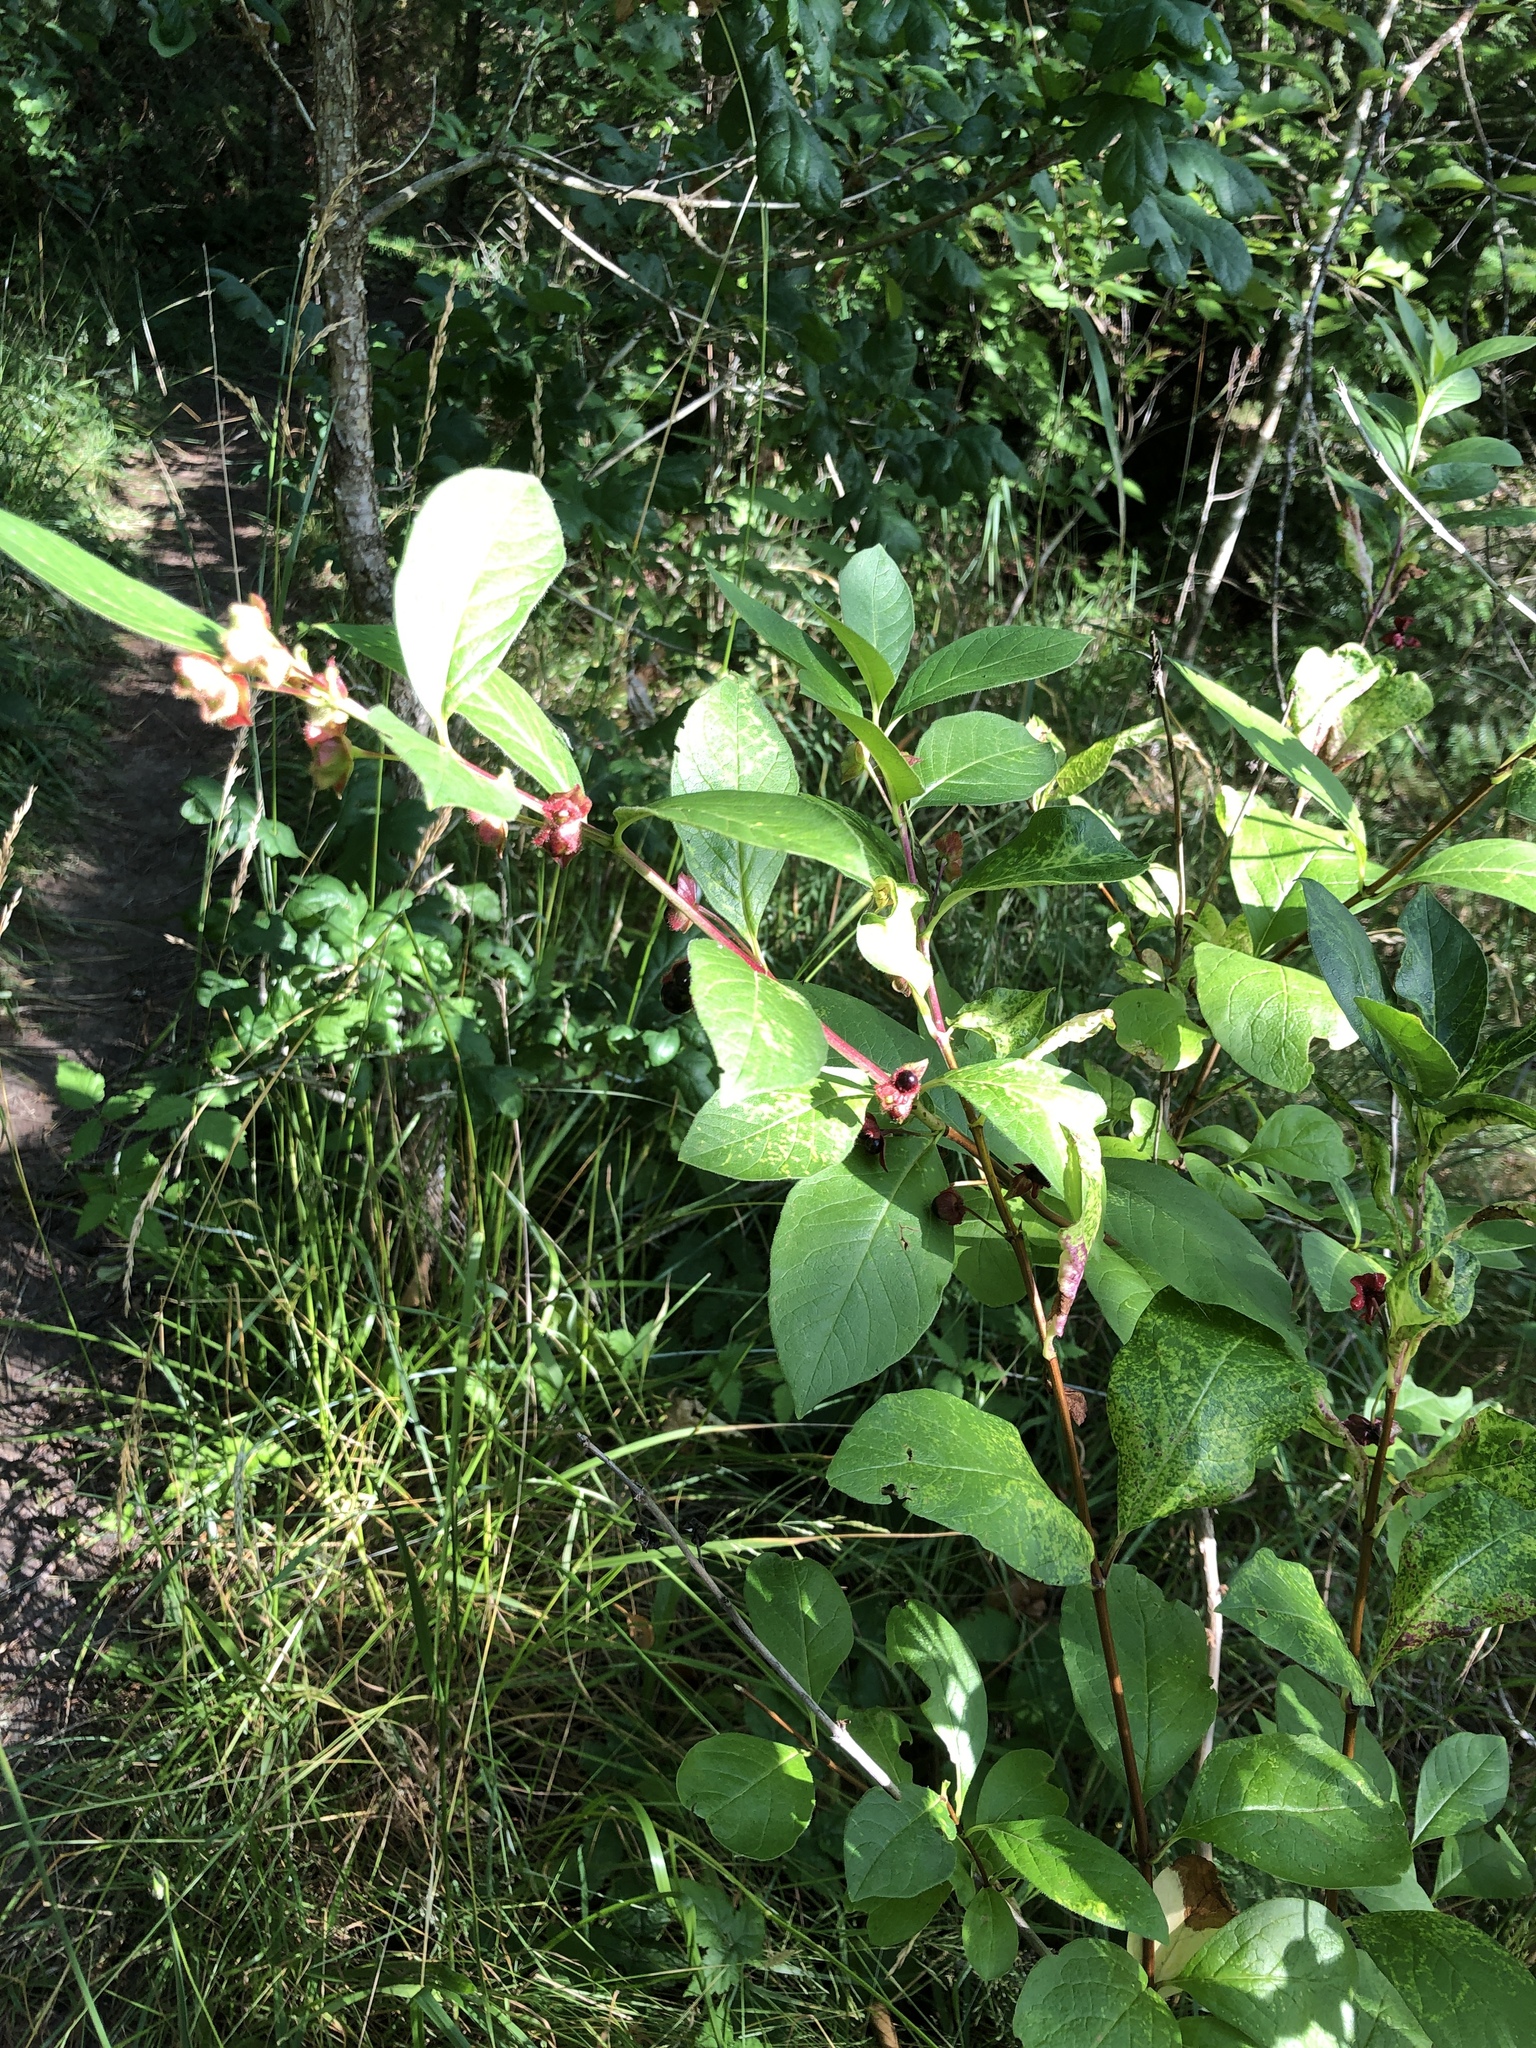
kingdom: Plantae
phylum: Tracheophyta
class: Magnoliopsida
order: Dipsacales
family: Caprifoliaceae
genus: Lonicera
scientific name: Lonicera involucrata
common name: Californian honeysuckle
